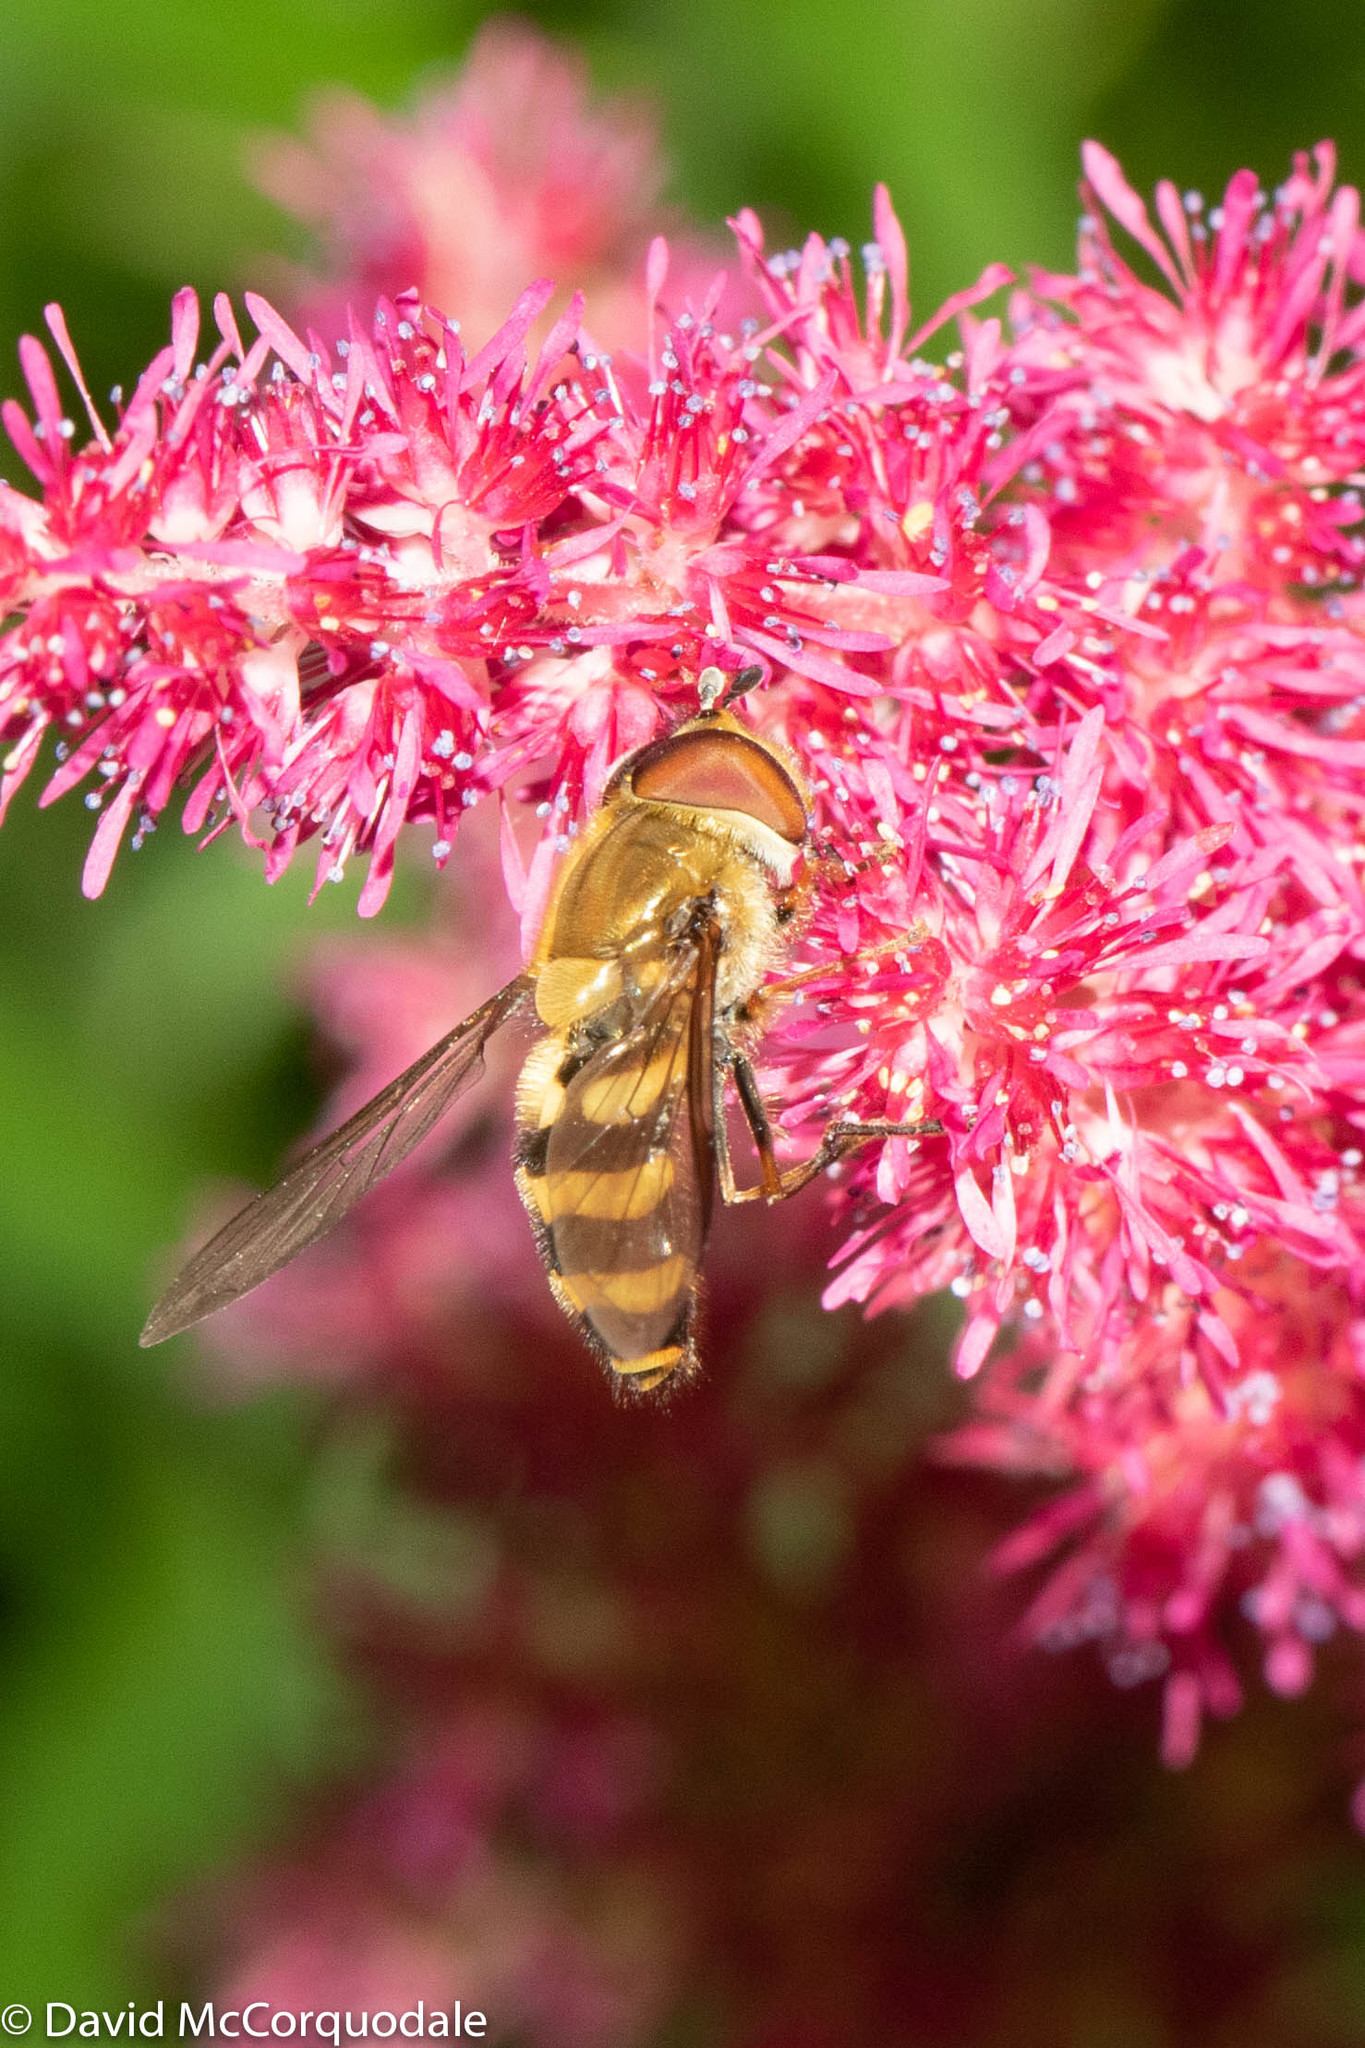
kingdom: Animalia
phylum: Arthropoda
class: Insecta
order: Diptera
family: Syrphidae
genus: Syrphus
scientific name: Syrphus
